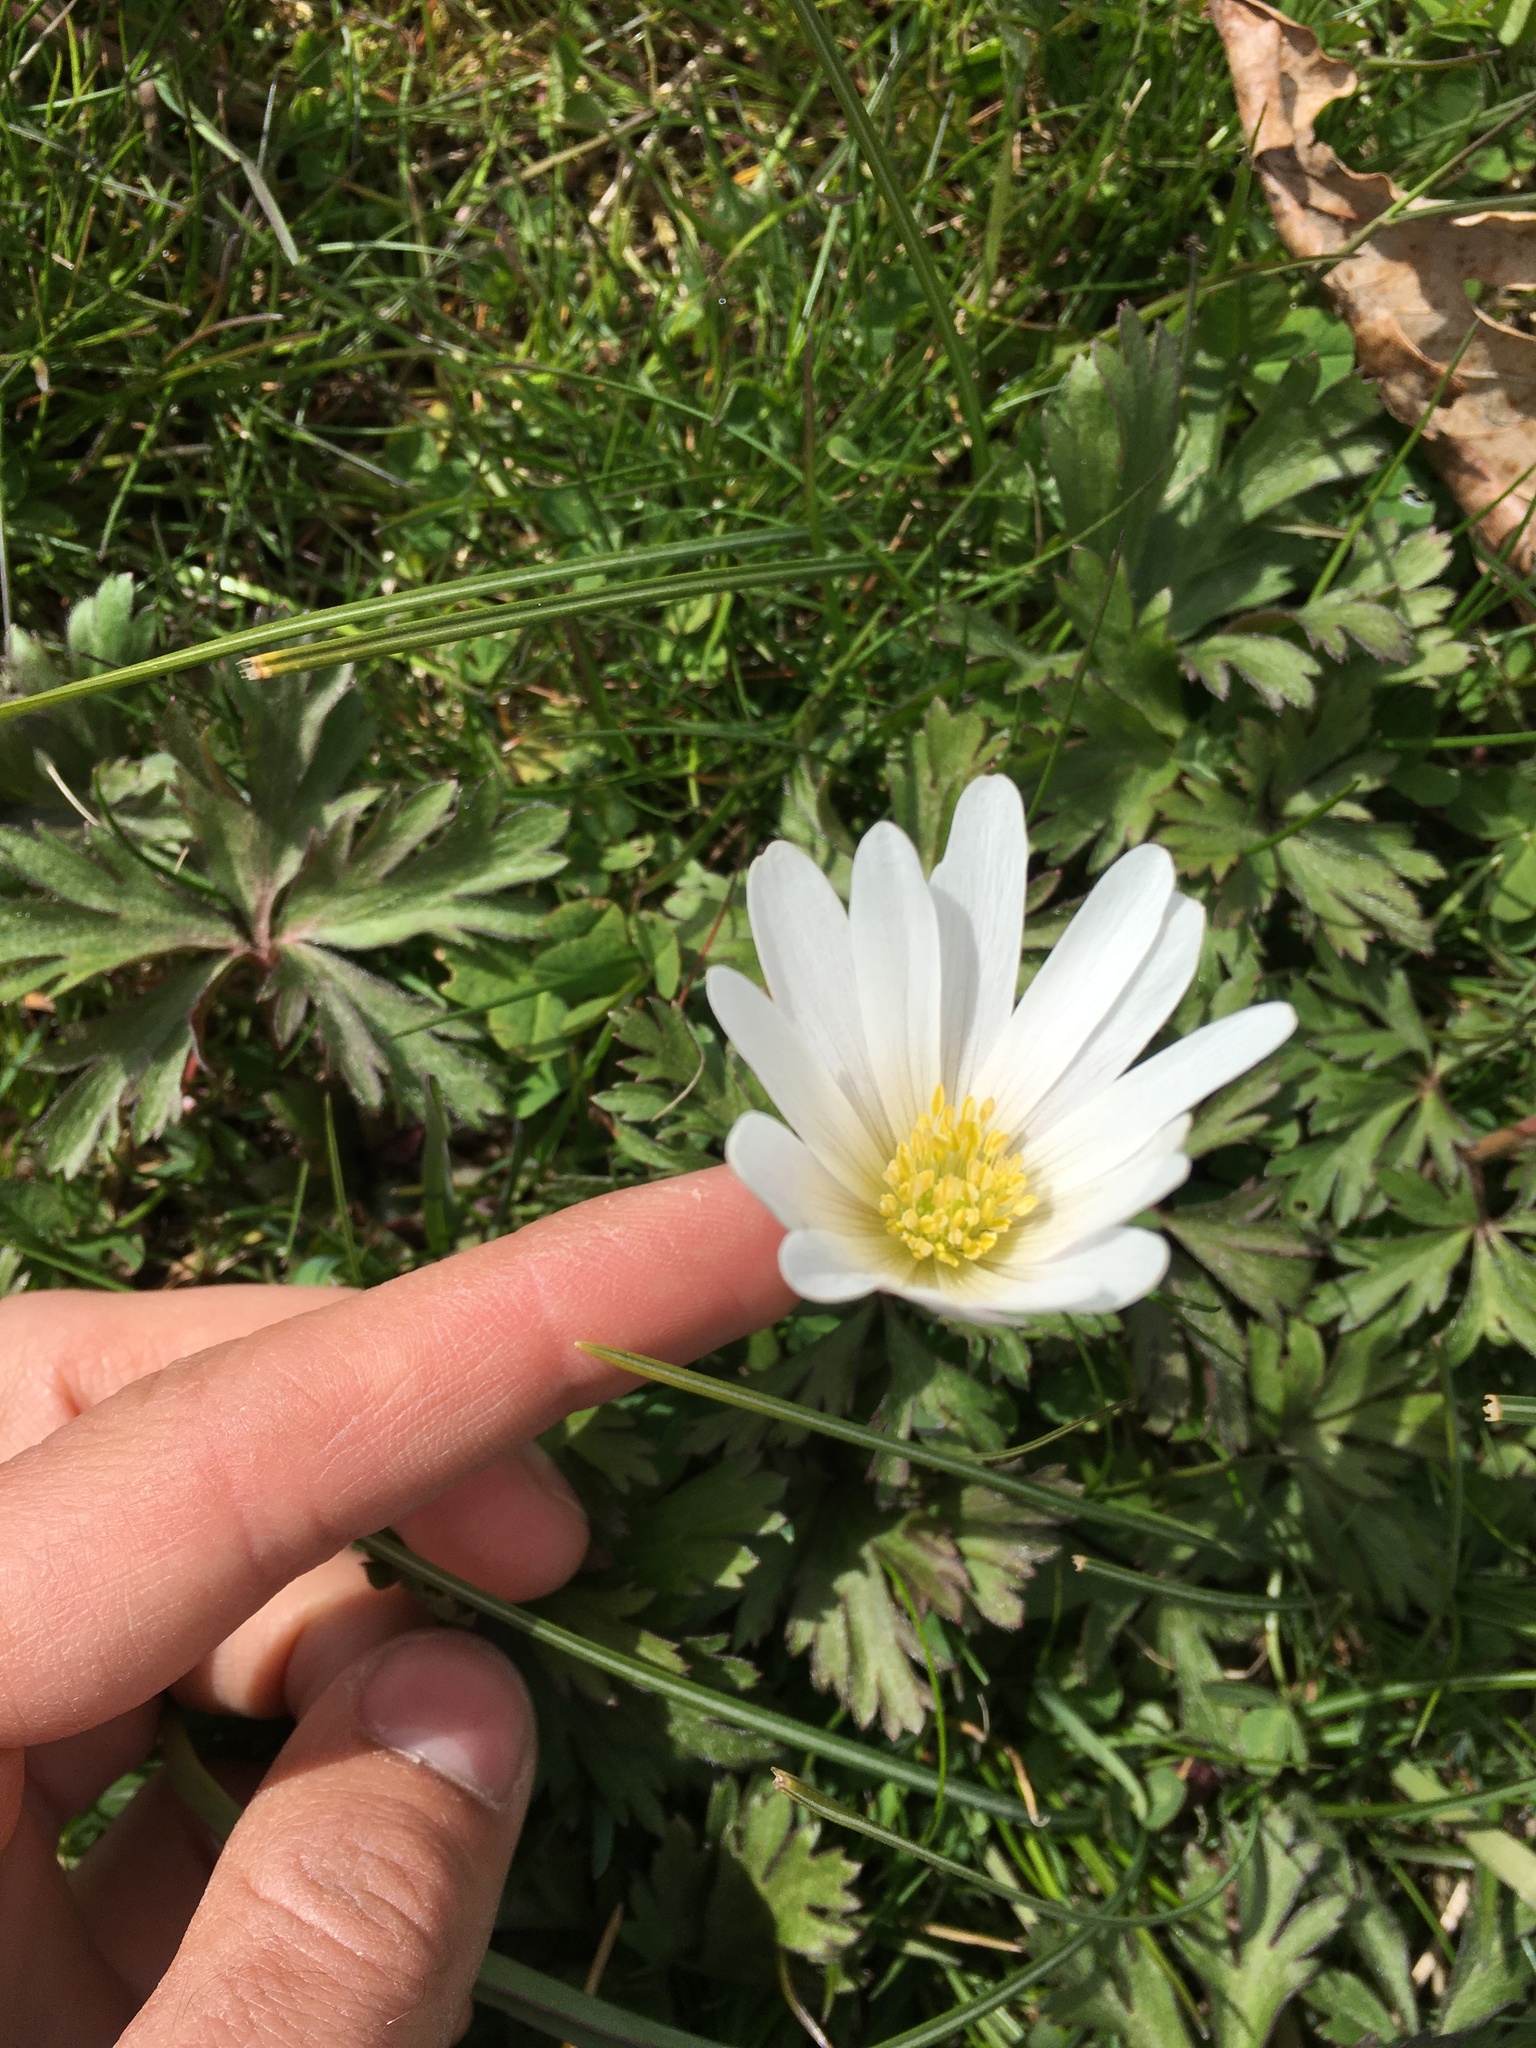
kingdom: Plantae
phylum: Tracheophyta
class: Magnoliopsida
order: Ranunculales
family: Ranunculaceae
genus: Anemone
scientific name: Anemone blanda
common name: Balkan anemone
